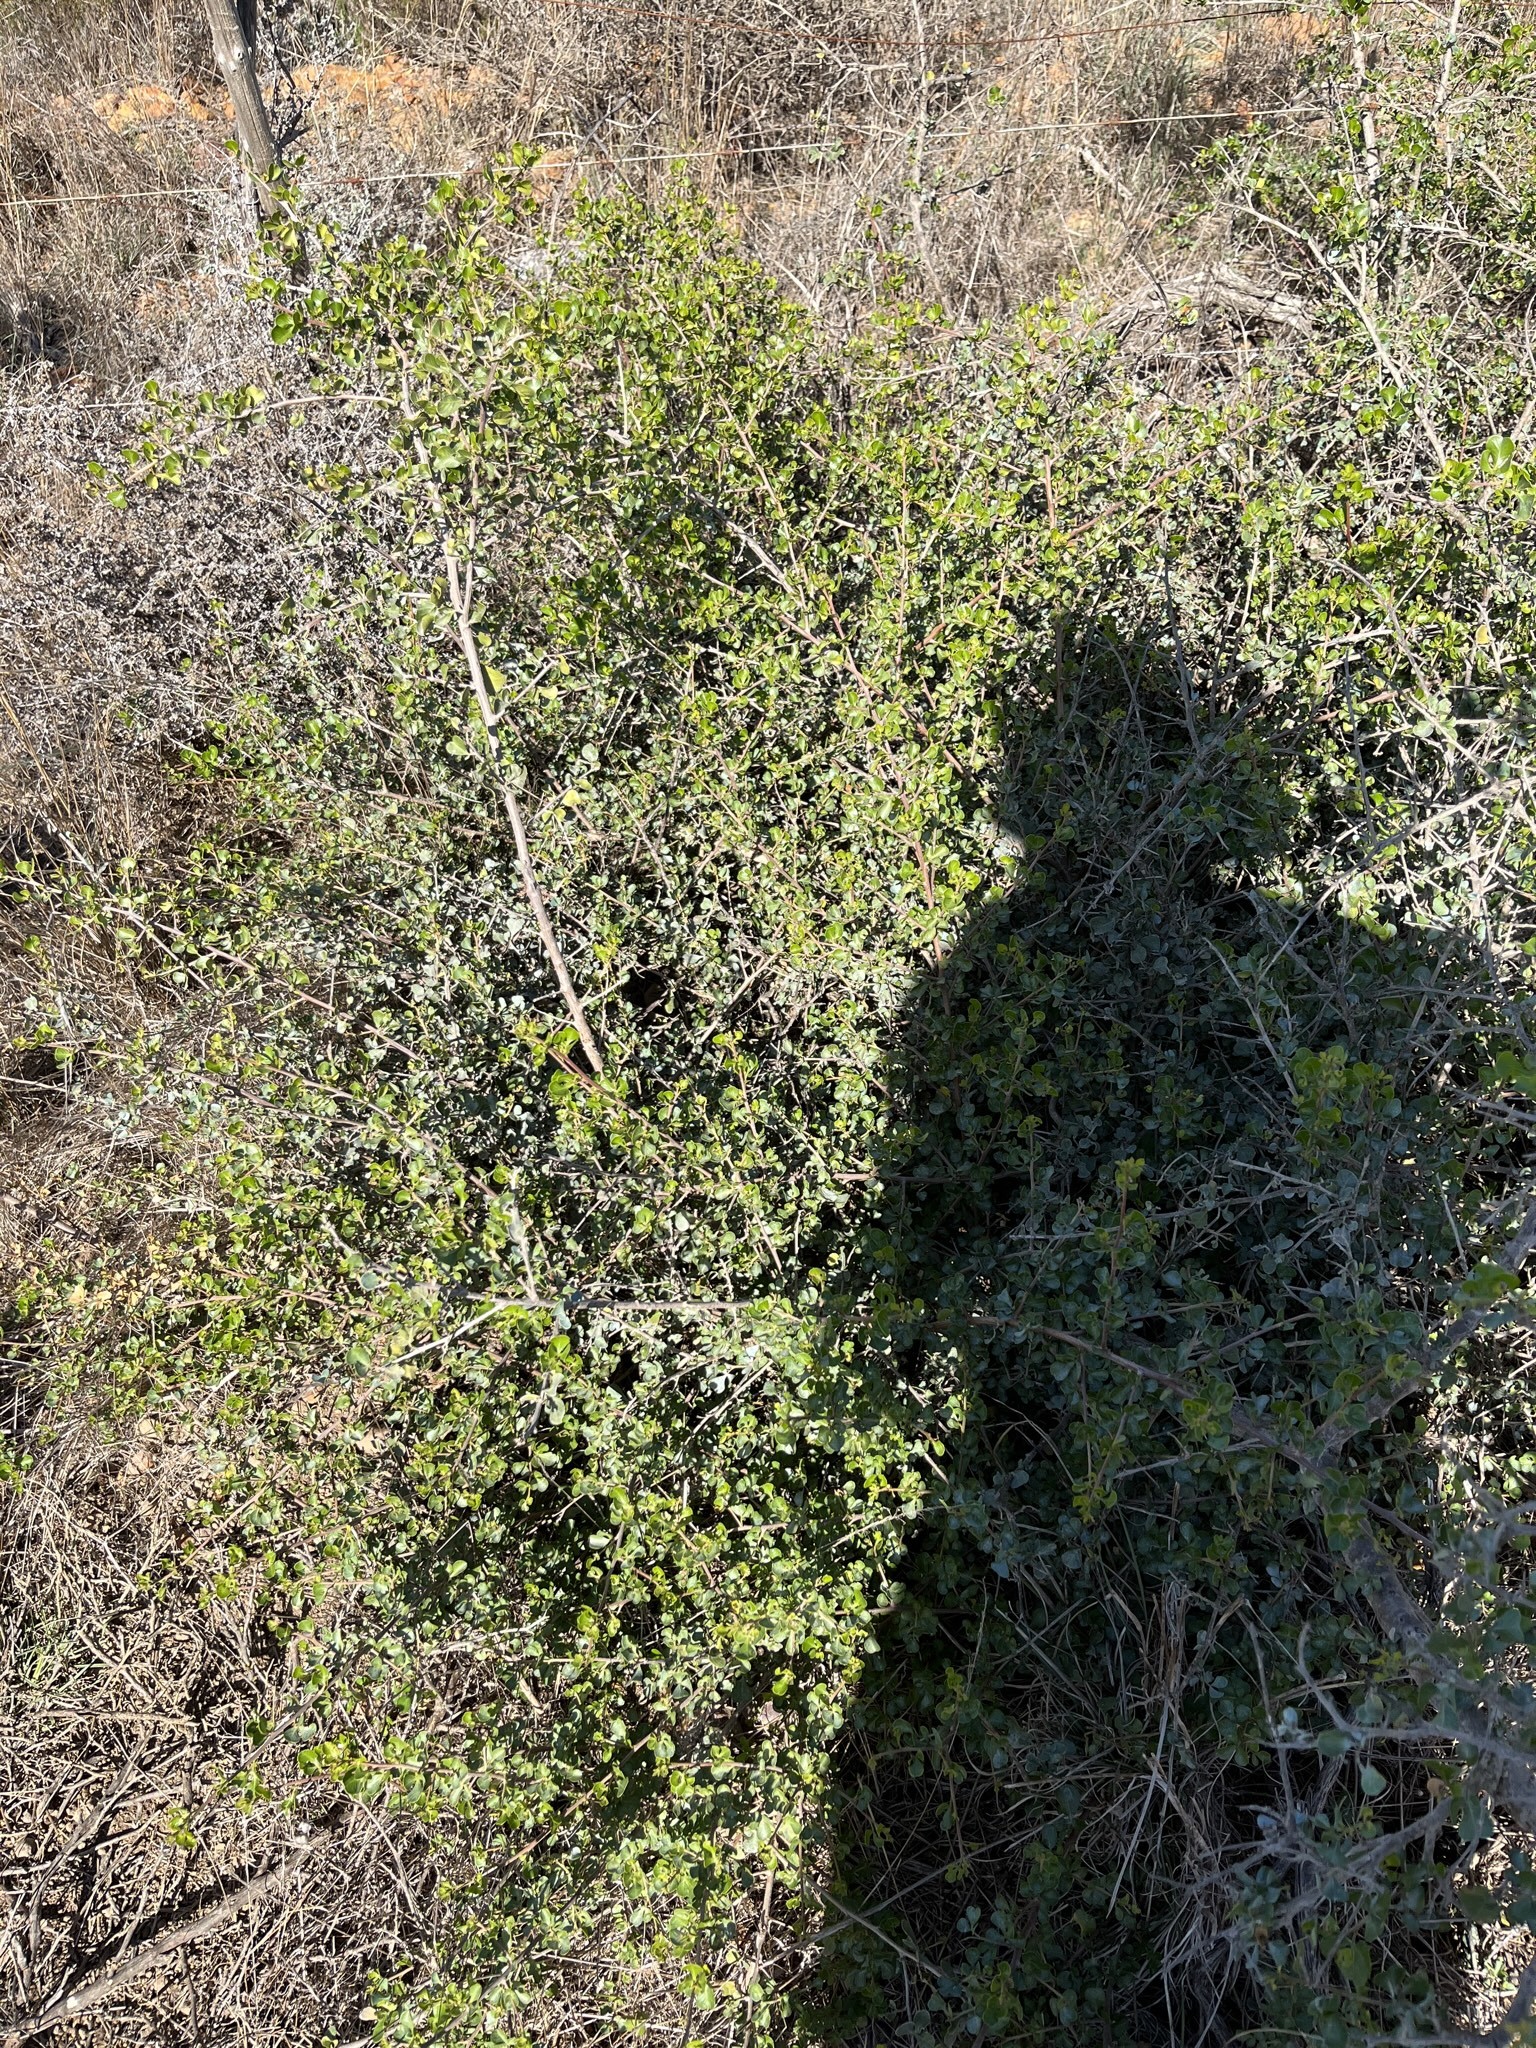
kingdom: Plantae
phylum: Tracheophyta
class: Magnoliopsida
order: Sapindales
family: Anacardiaceae
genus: Searsia
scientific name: Searsia glauca
